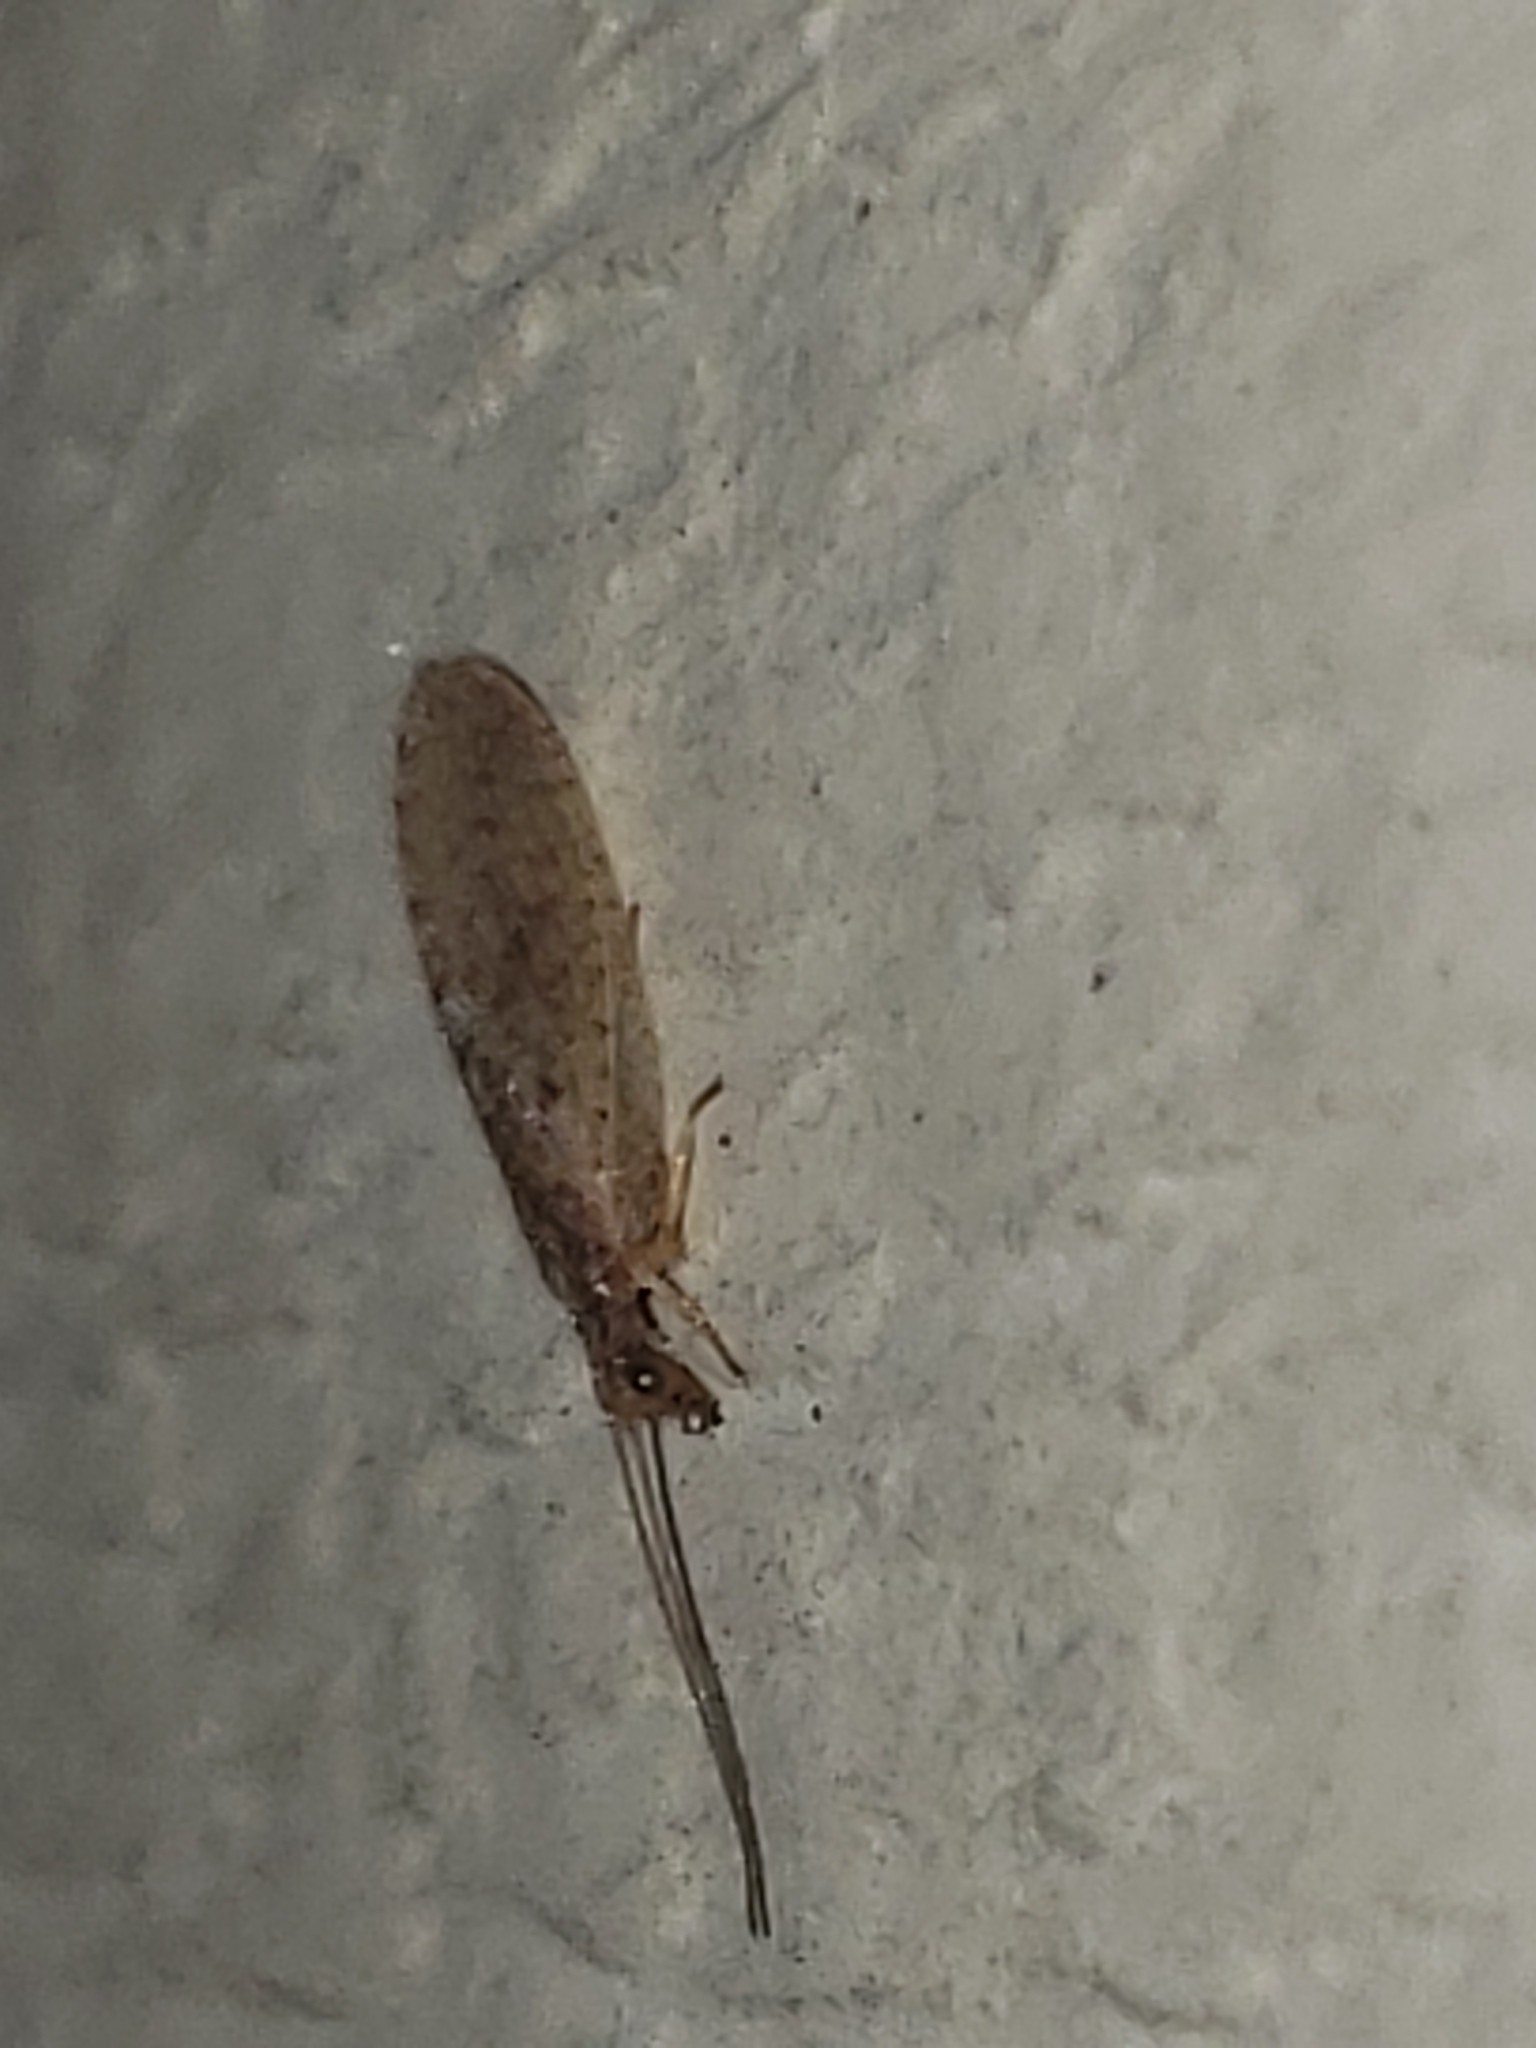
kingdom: Animalia
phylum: Arthropoda
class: Insecta
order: Neuroptera
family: Hemerobiidae
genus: Micromus
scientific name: Micromus subanticus
